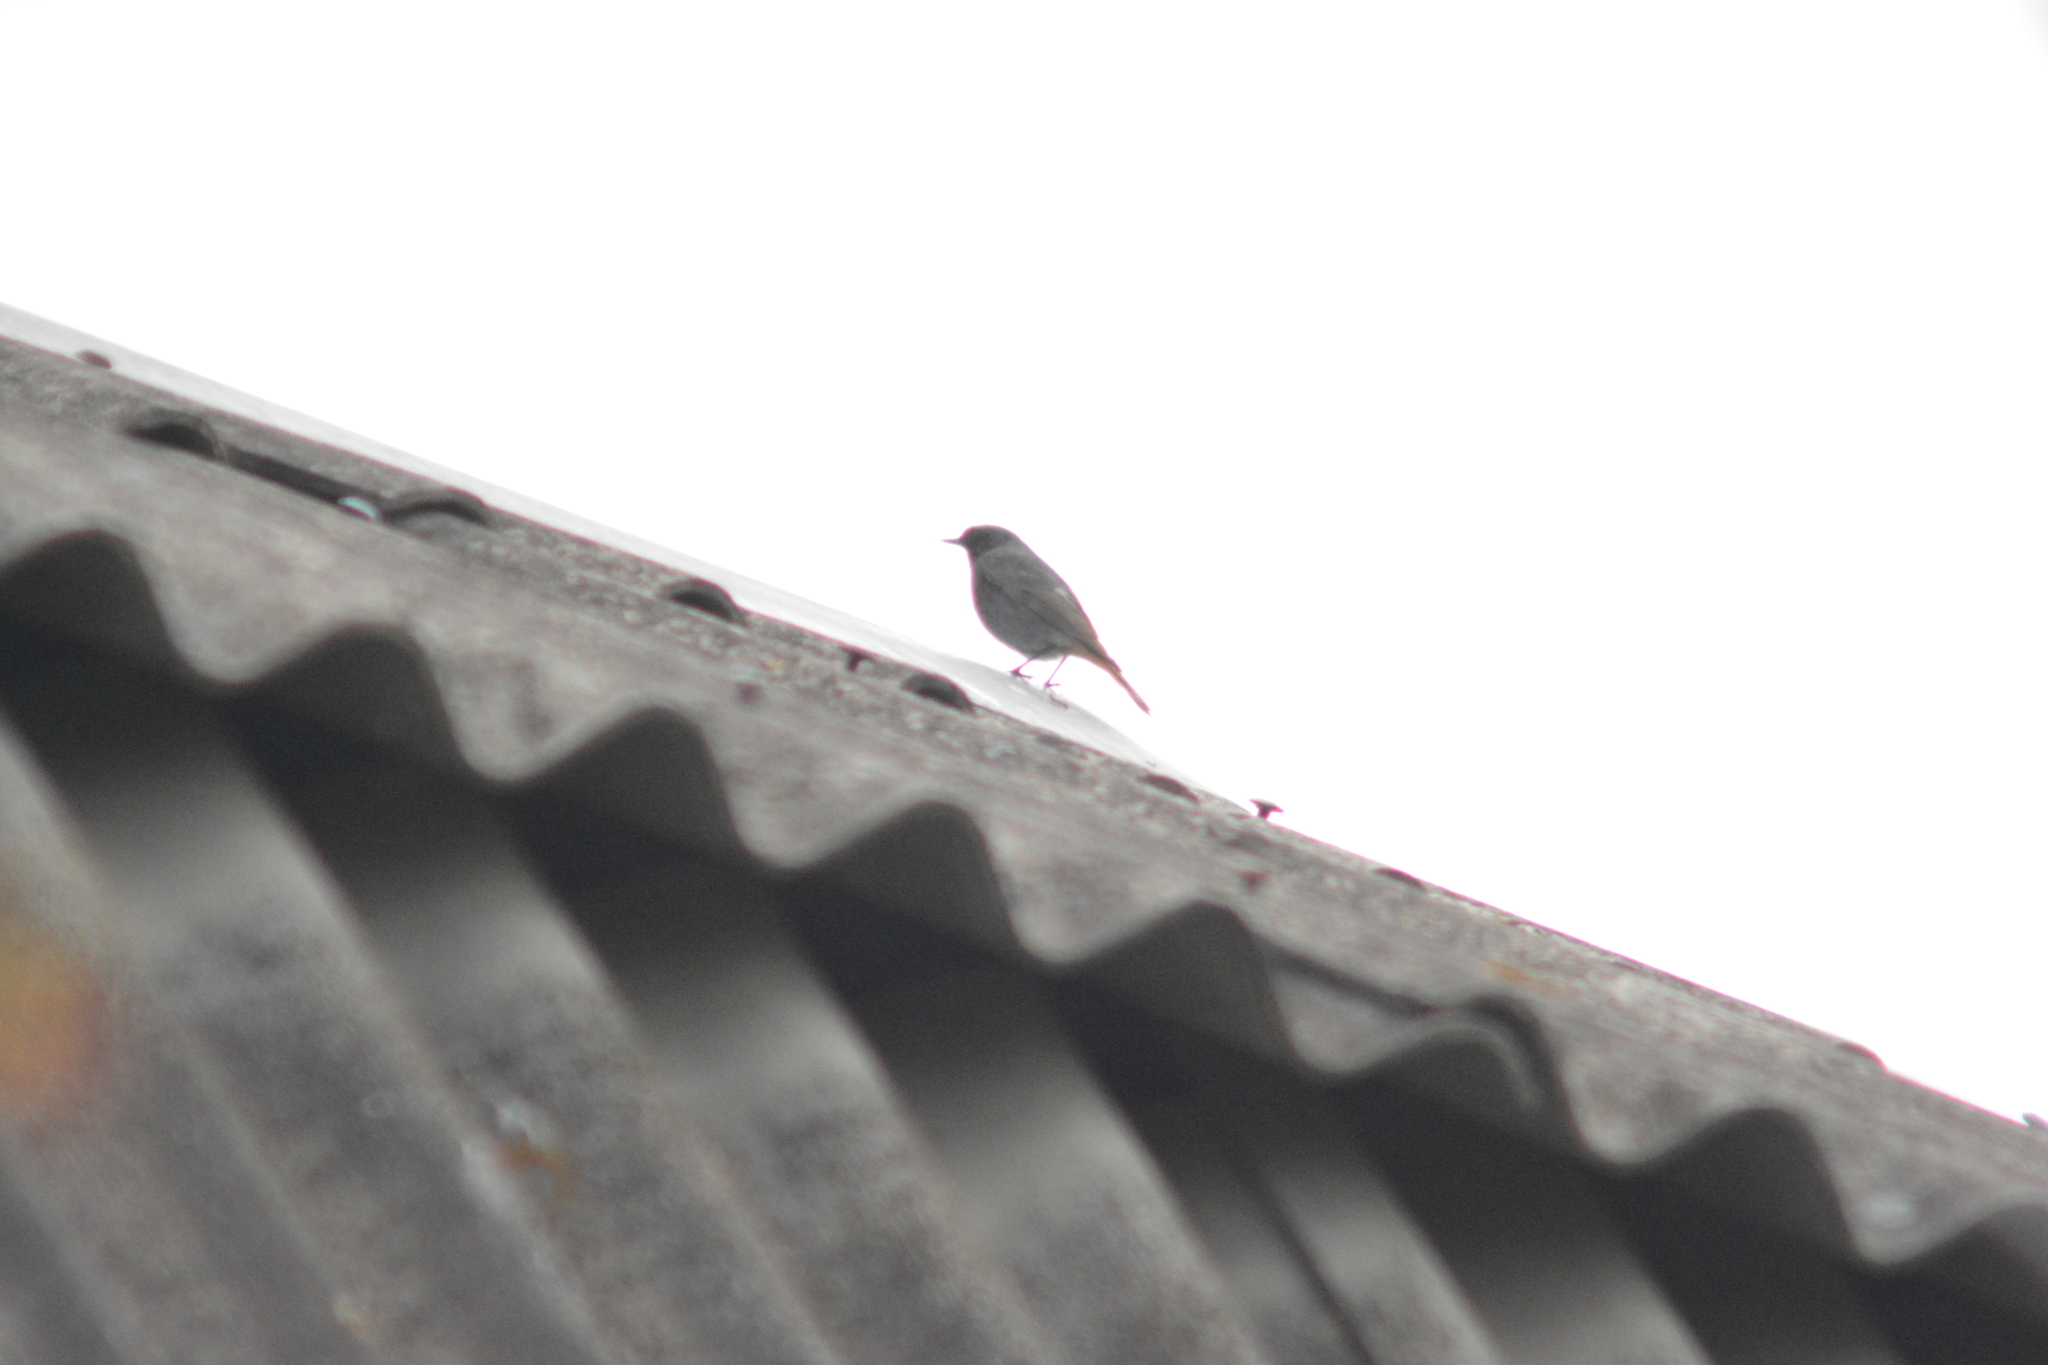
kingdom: Animalia
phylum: Chordata
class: Aves
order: Passeriformes
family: Muscicapidae
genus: Phoenicurus
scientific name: Phoenicurus ochruros
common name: Black redstart
